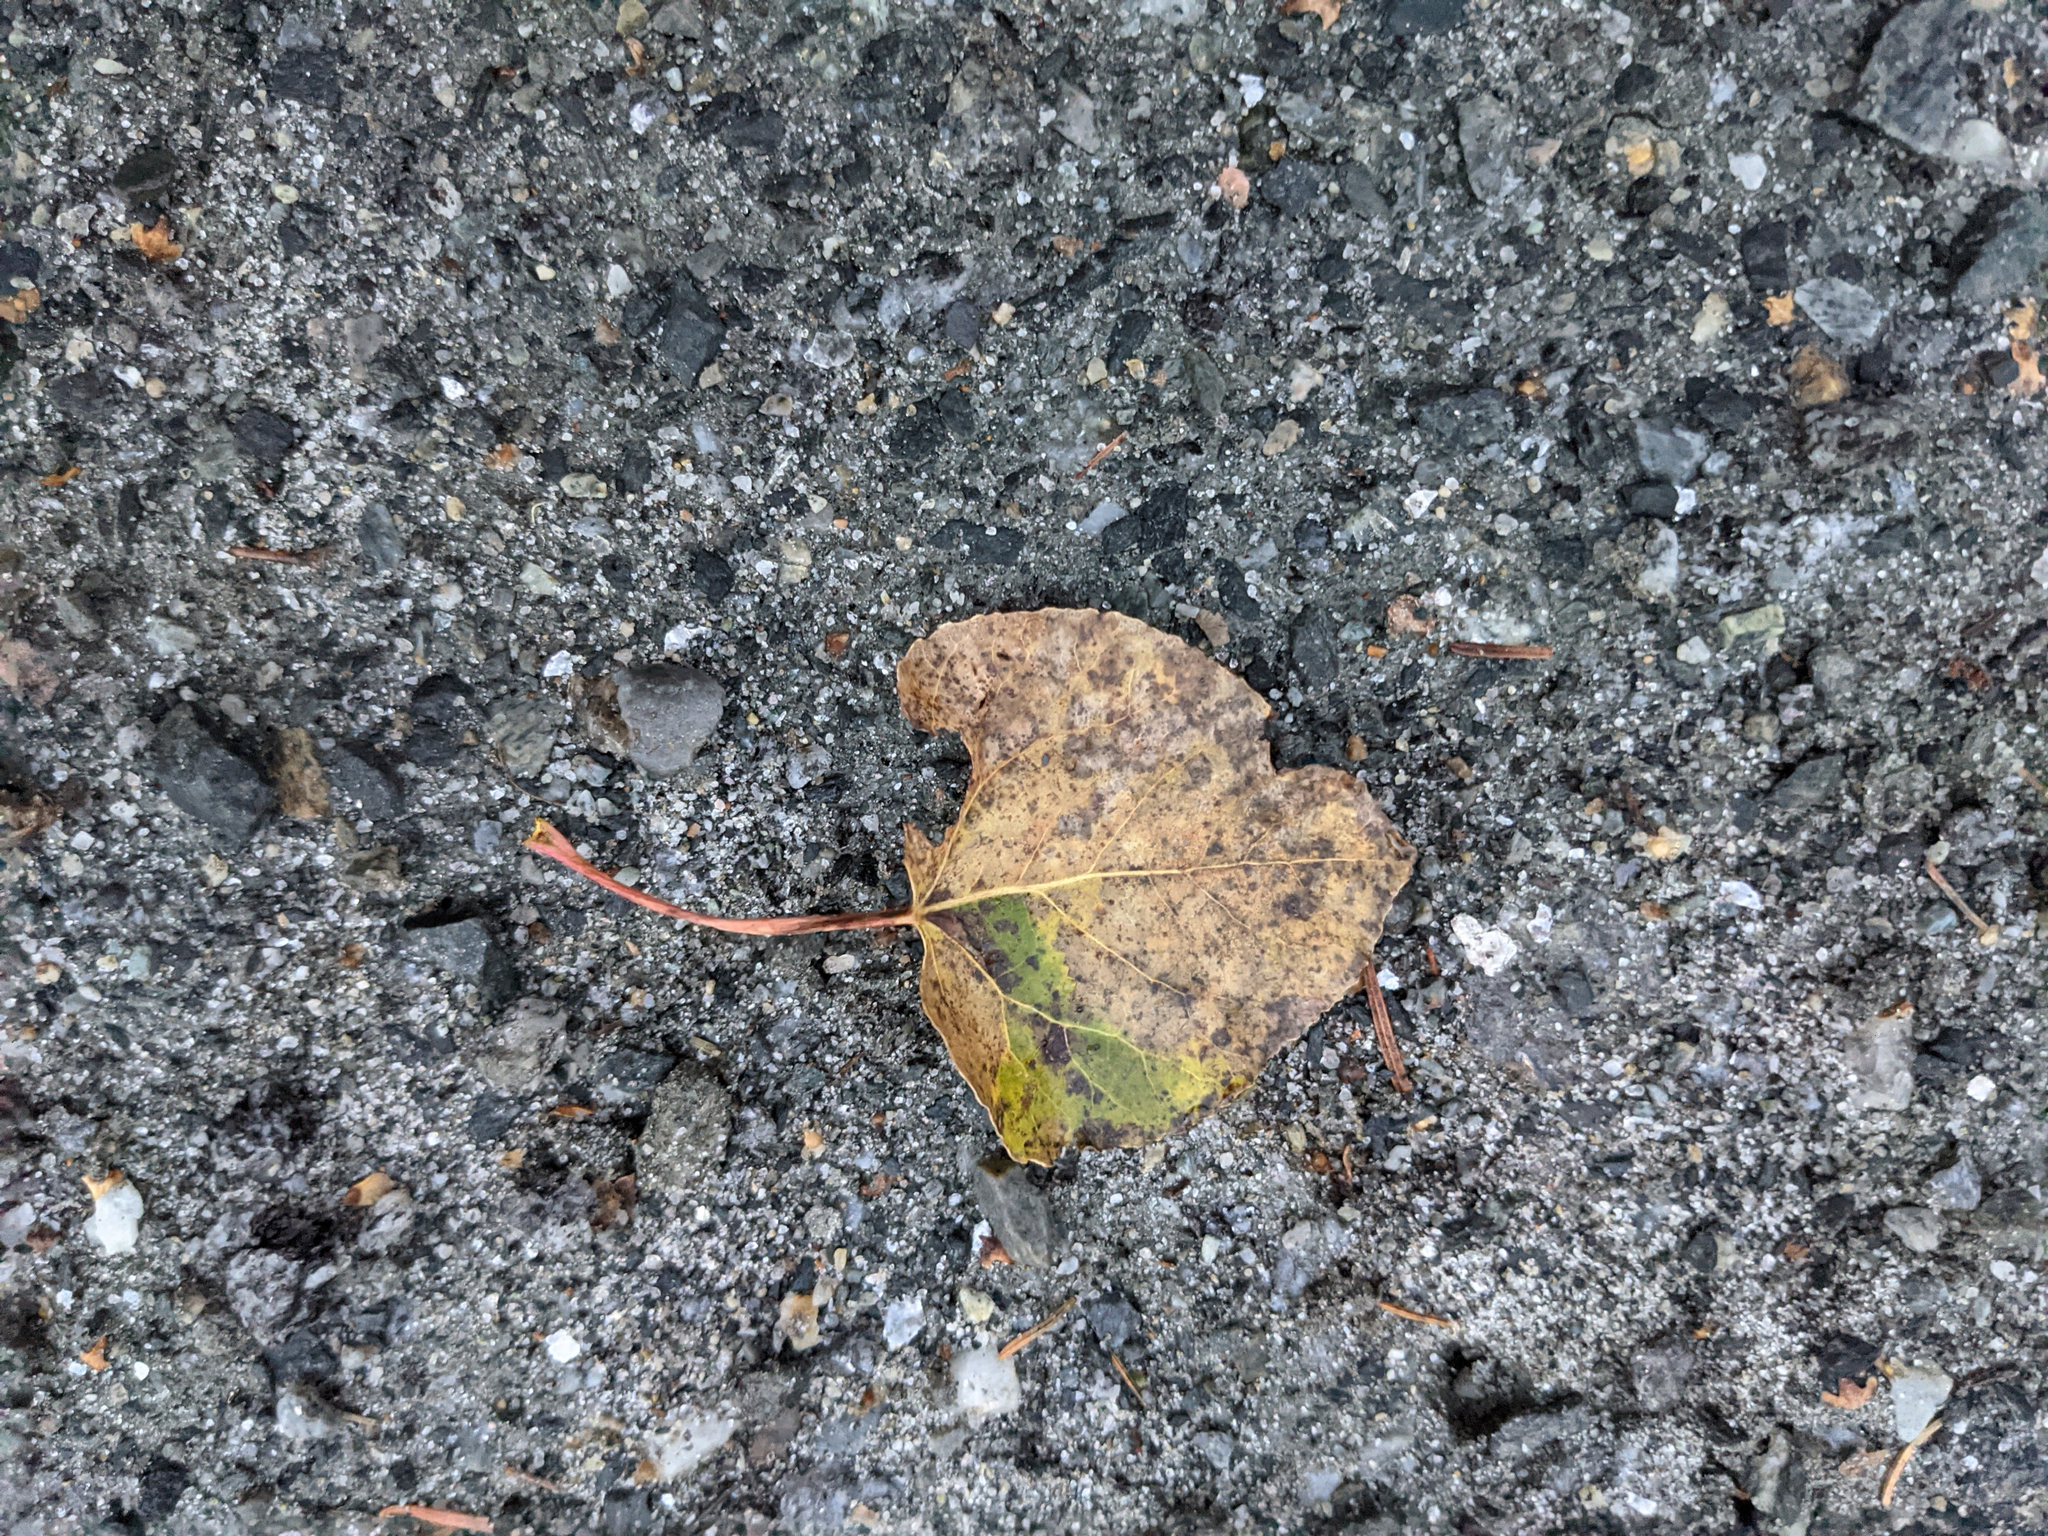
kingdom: Plantae
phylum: Tracheophyta
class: Magnoliopsida
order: Malpighiales
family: Salicaceae
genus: Populus
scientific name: Populus tremuloides
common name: Quaking aspen
